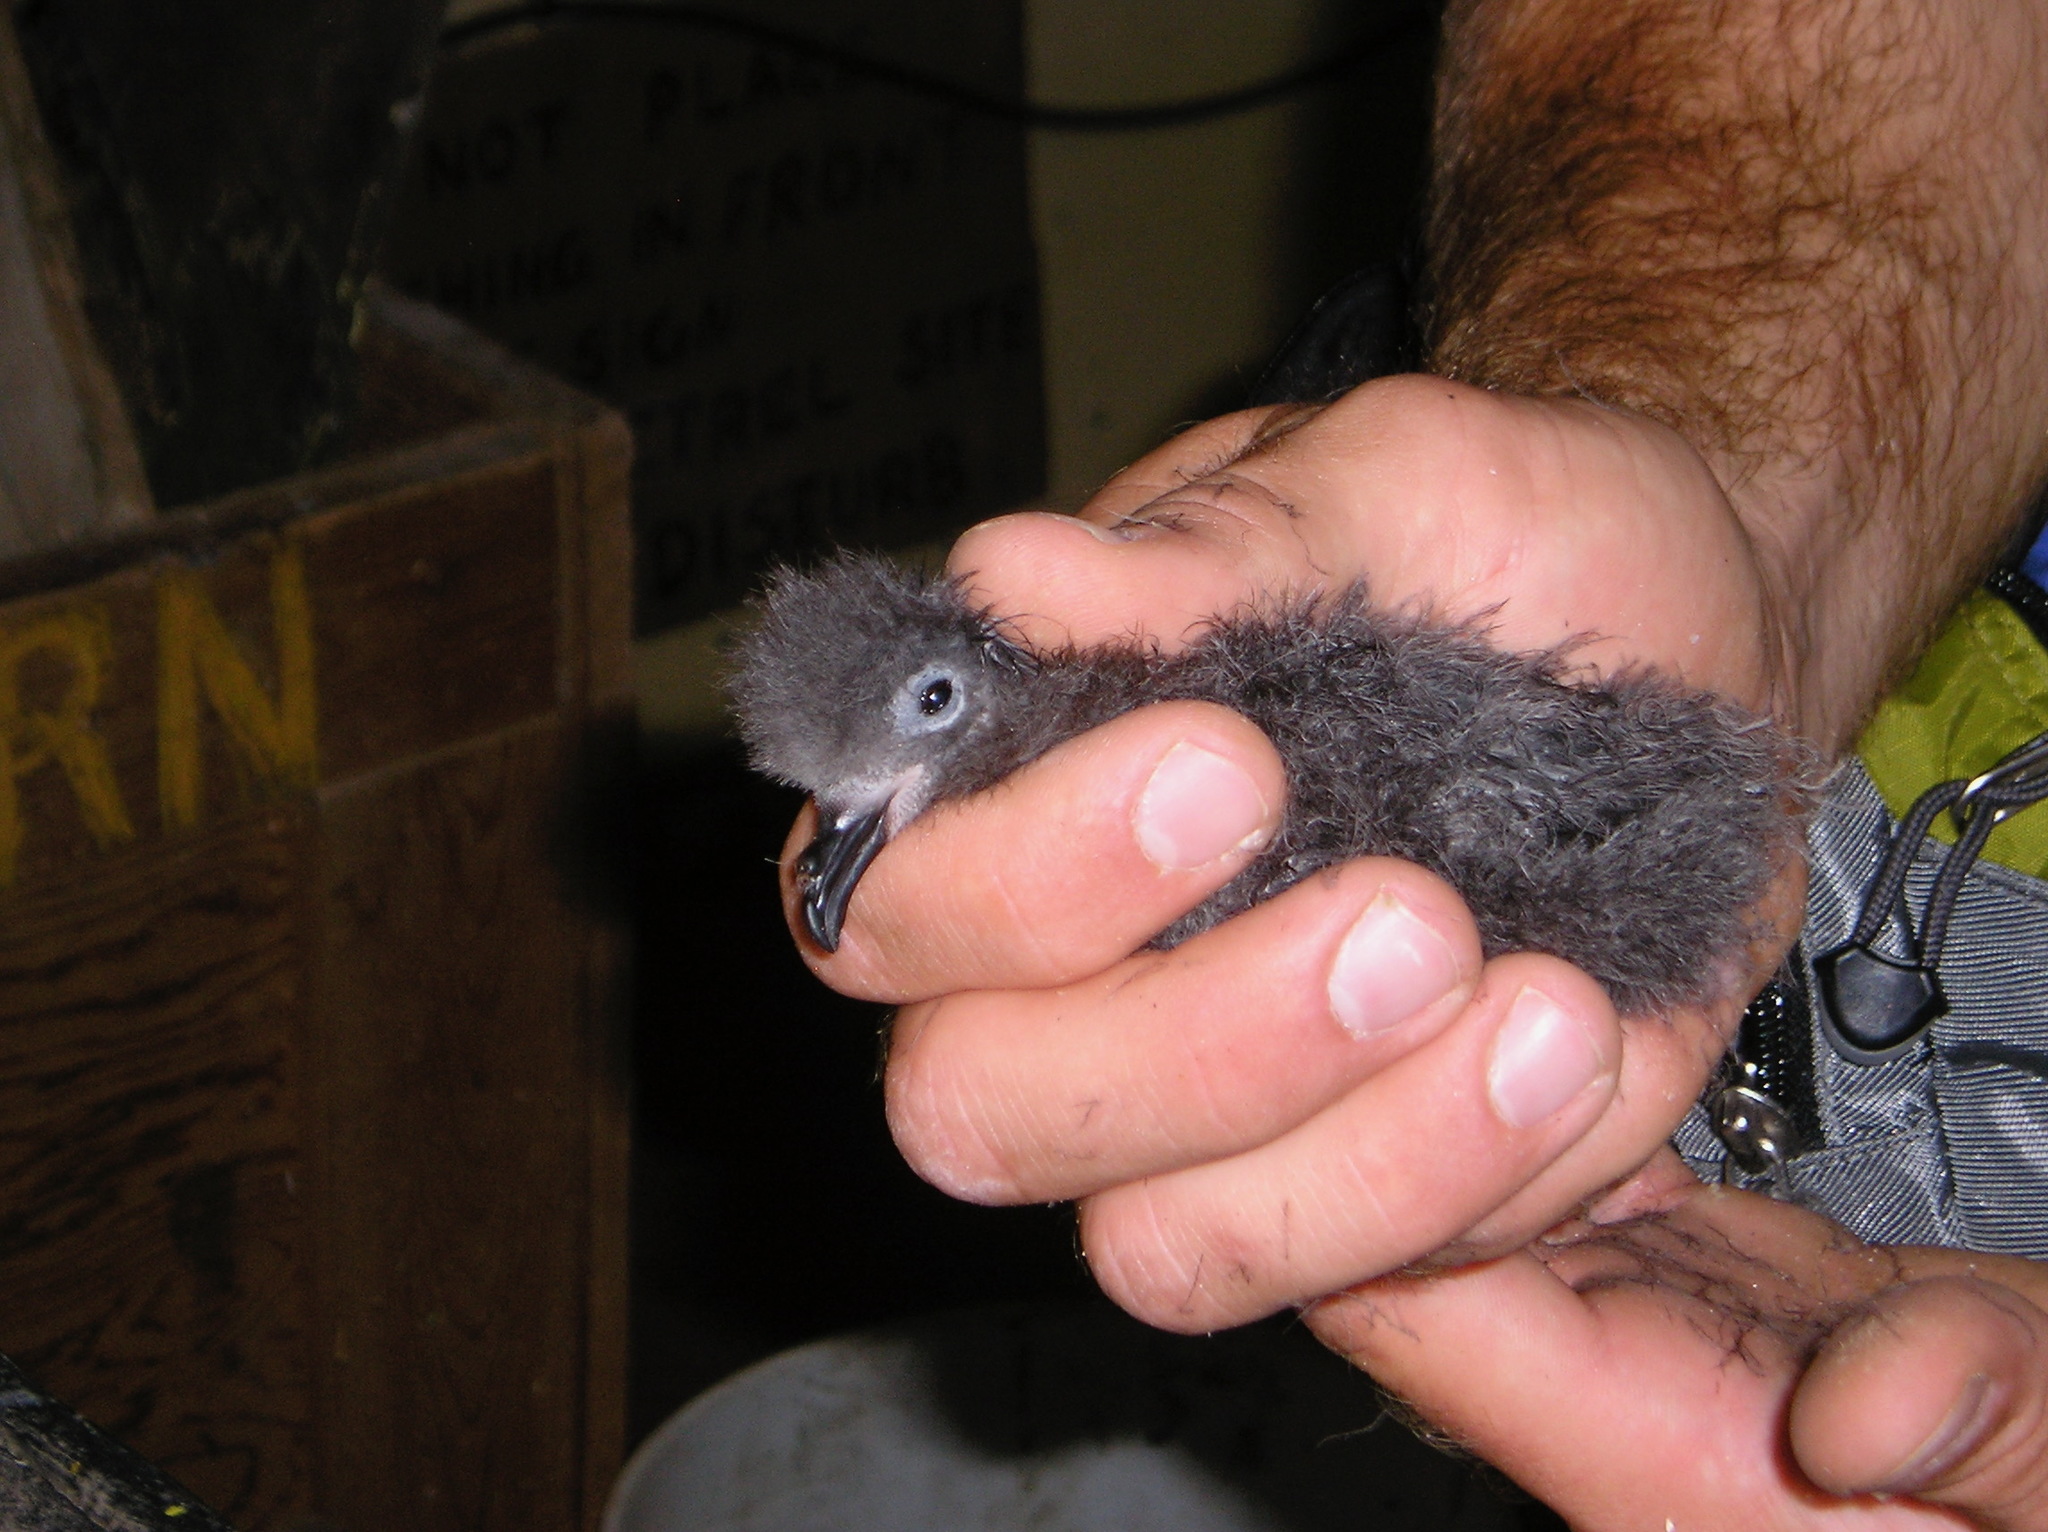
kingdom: Animalia
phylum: Chordata
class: Aves
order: Procellariiformes
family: Hydrobatidae
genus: Hydrobates
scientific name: Hydrobates homochroa
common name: Ashy storm petrel
